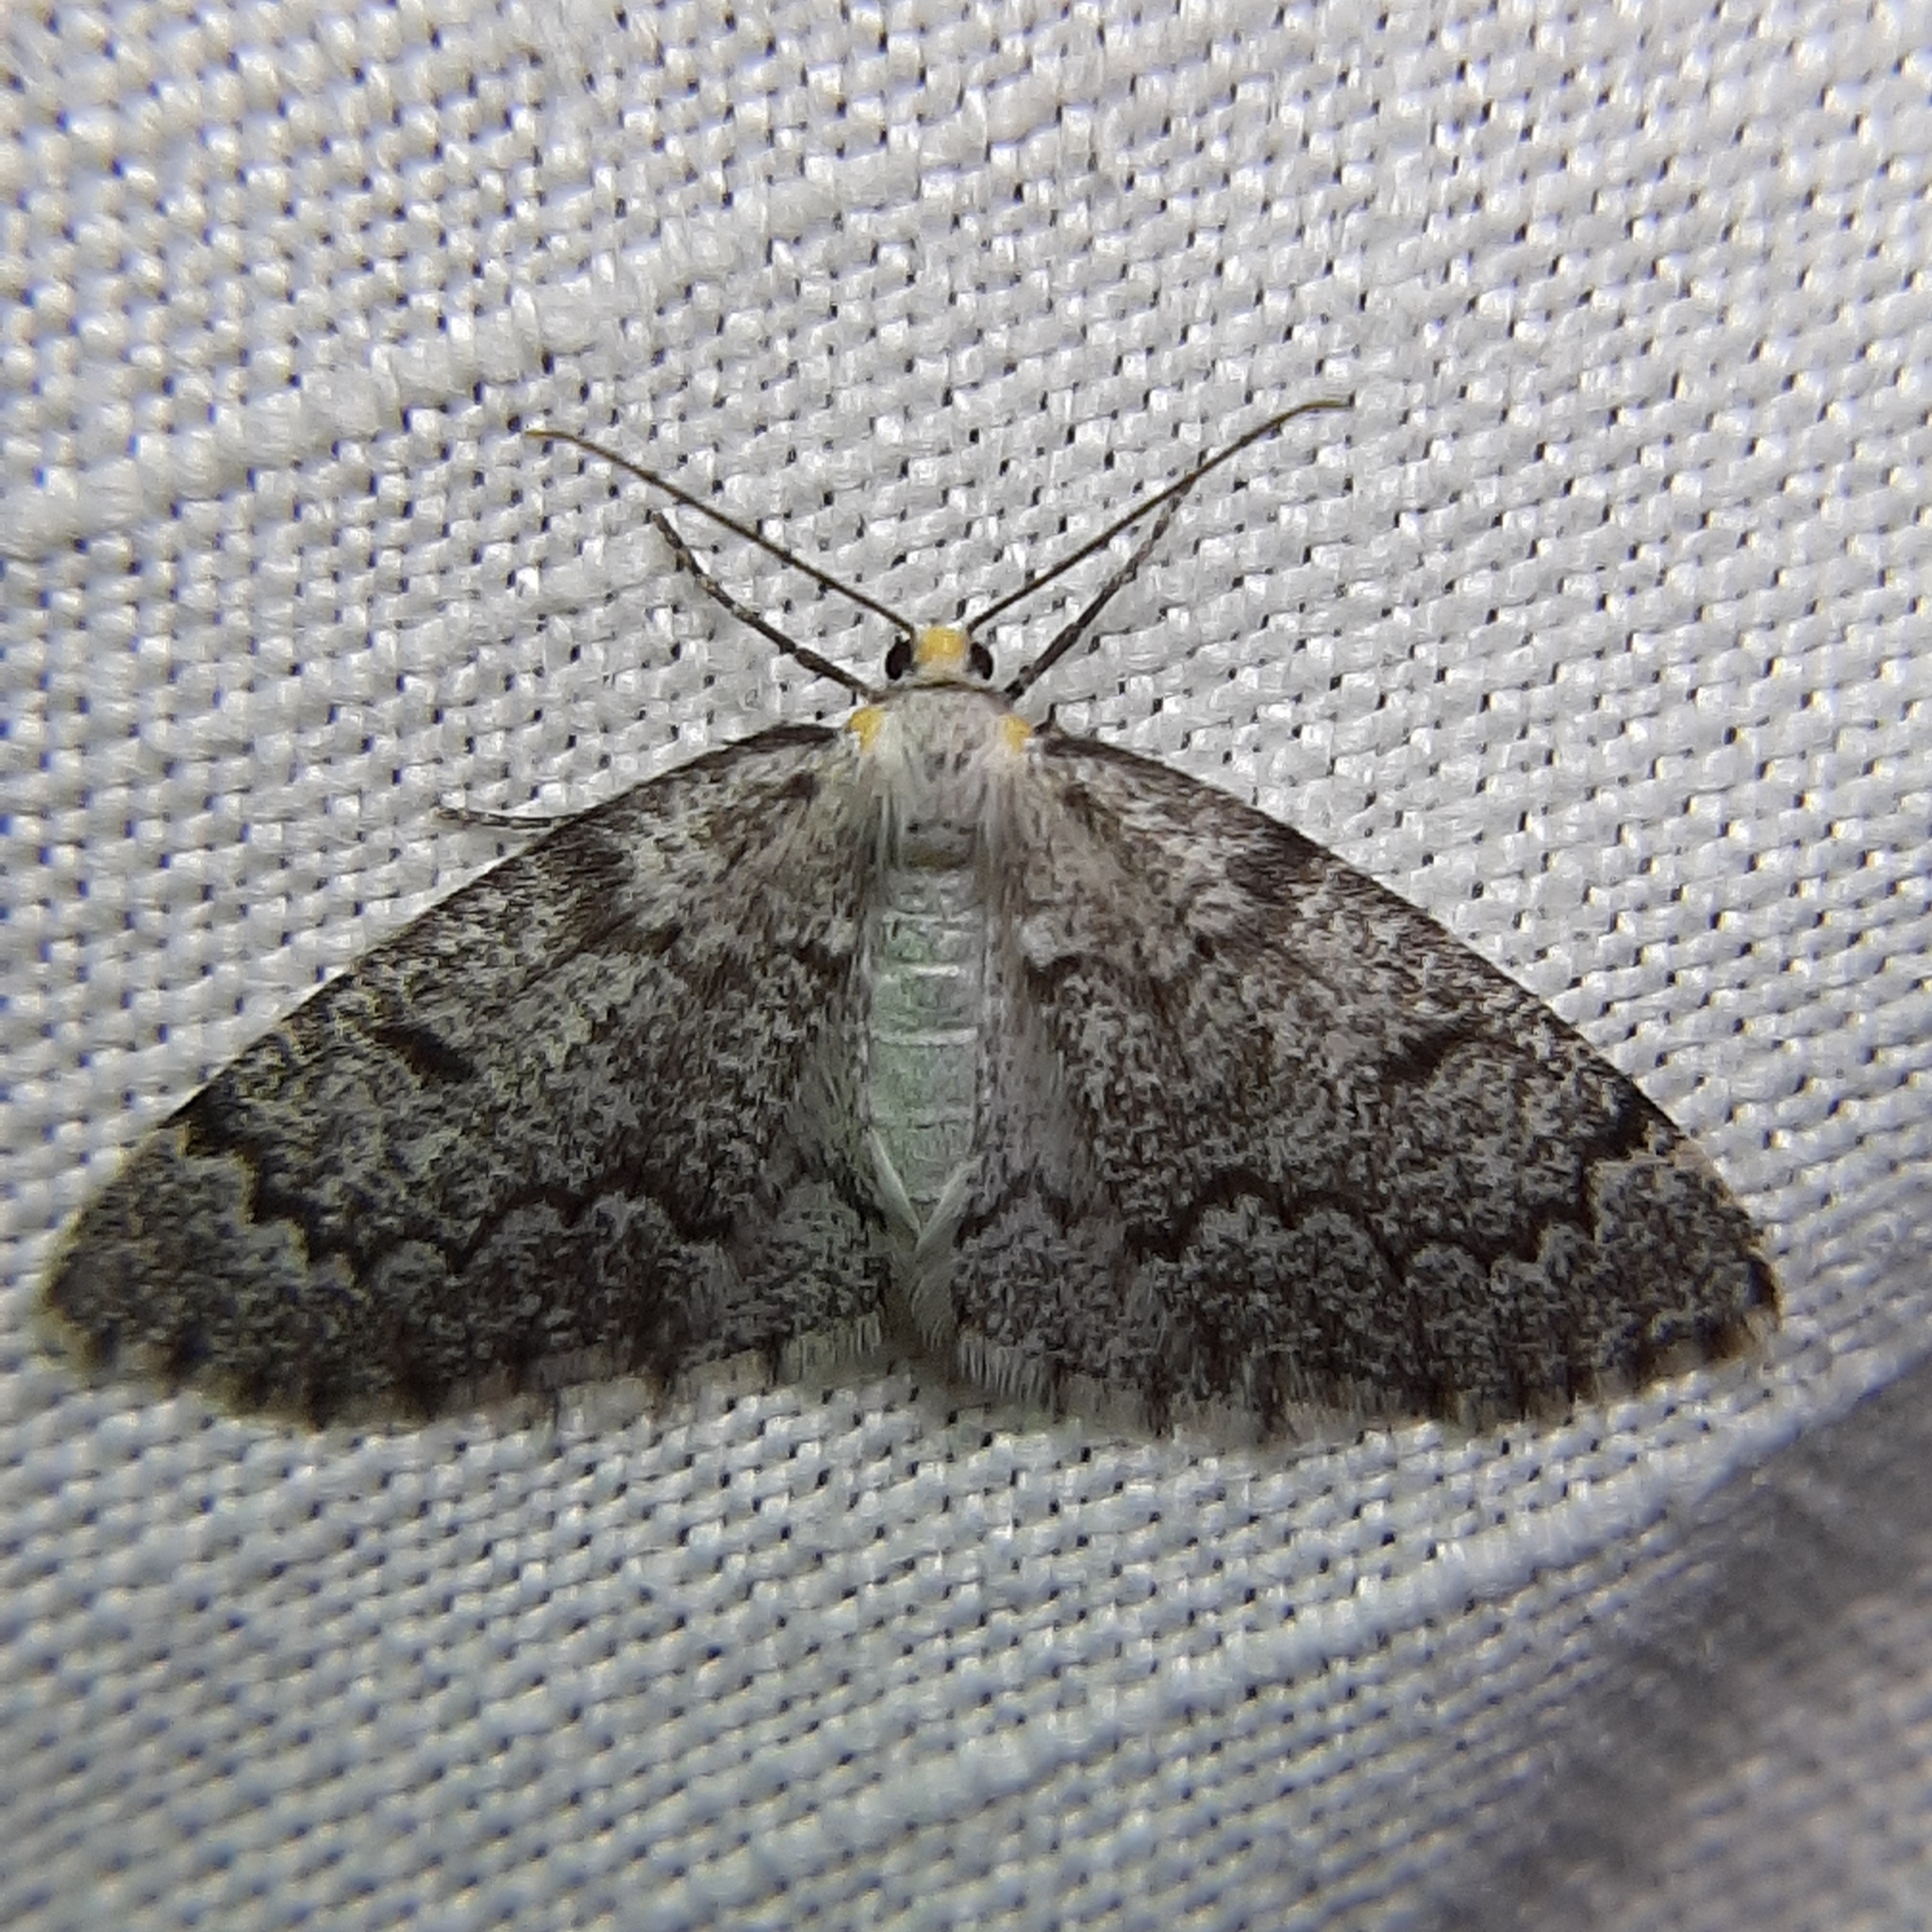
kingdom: Animalia
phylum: Arthropoda
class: Insecta
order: Lepidoptera
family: Geometridae
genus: Nepytia
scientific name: Nepytia canosaria
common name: False hemlock looper
